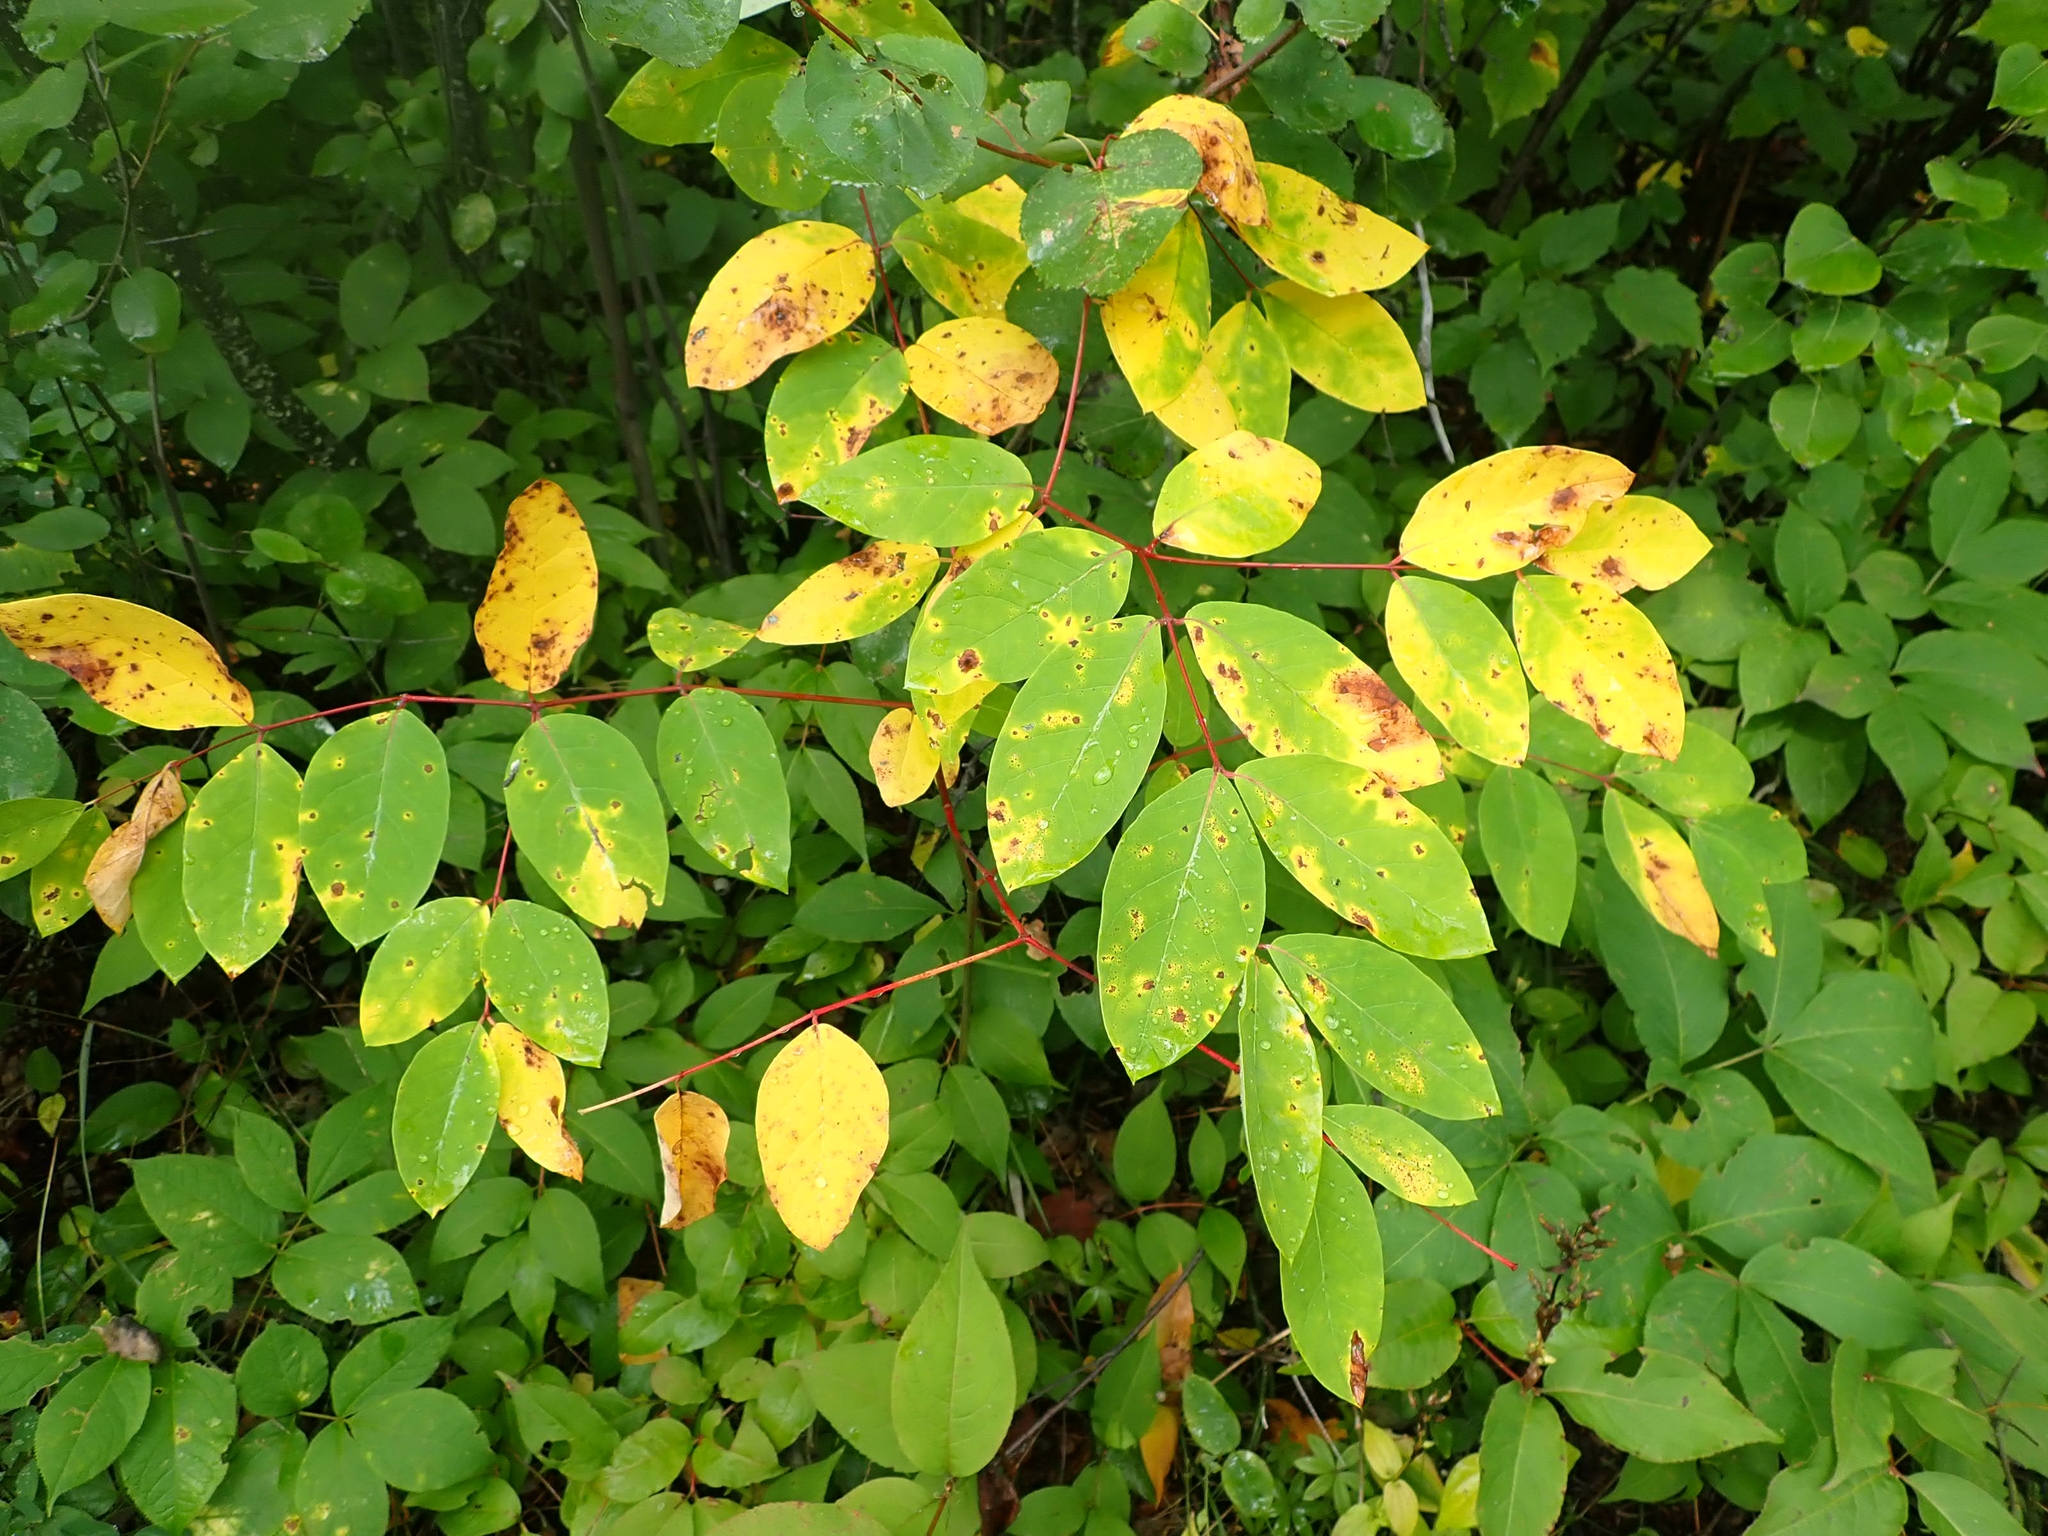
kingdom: Plantae
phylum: Tracheophyta
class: Magnoliopsida
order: Gentianales
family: Apocynaceae
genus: Apocynum
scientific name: Apocynum androsaemifolium
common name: Spreading dogbane
